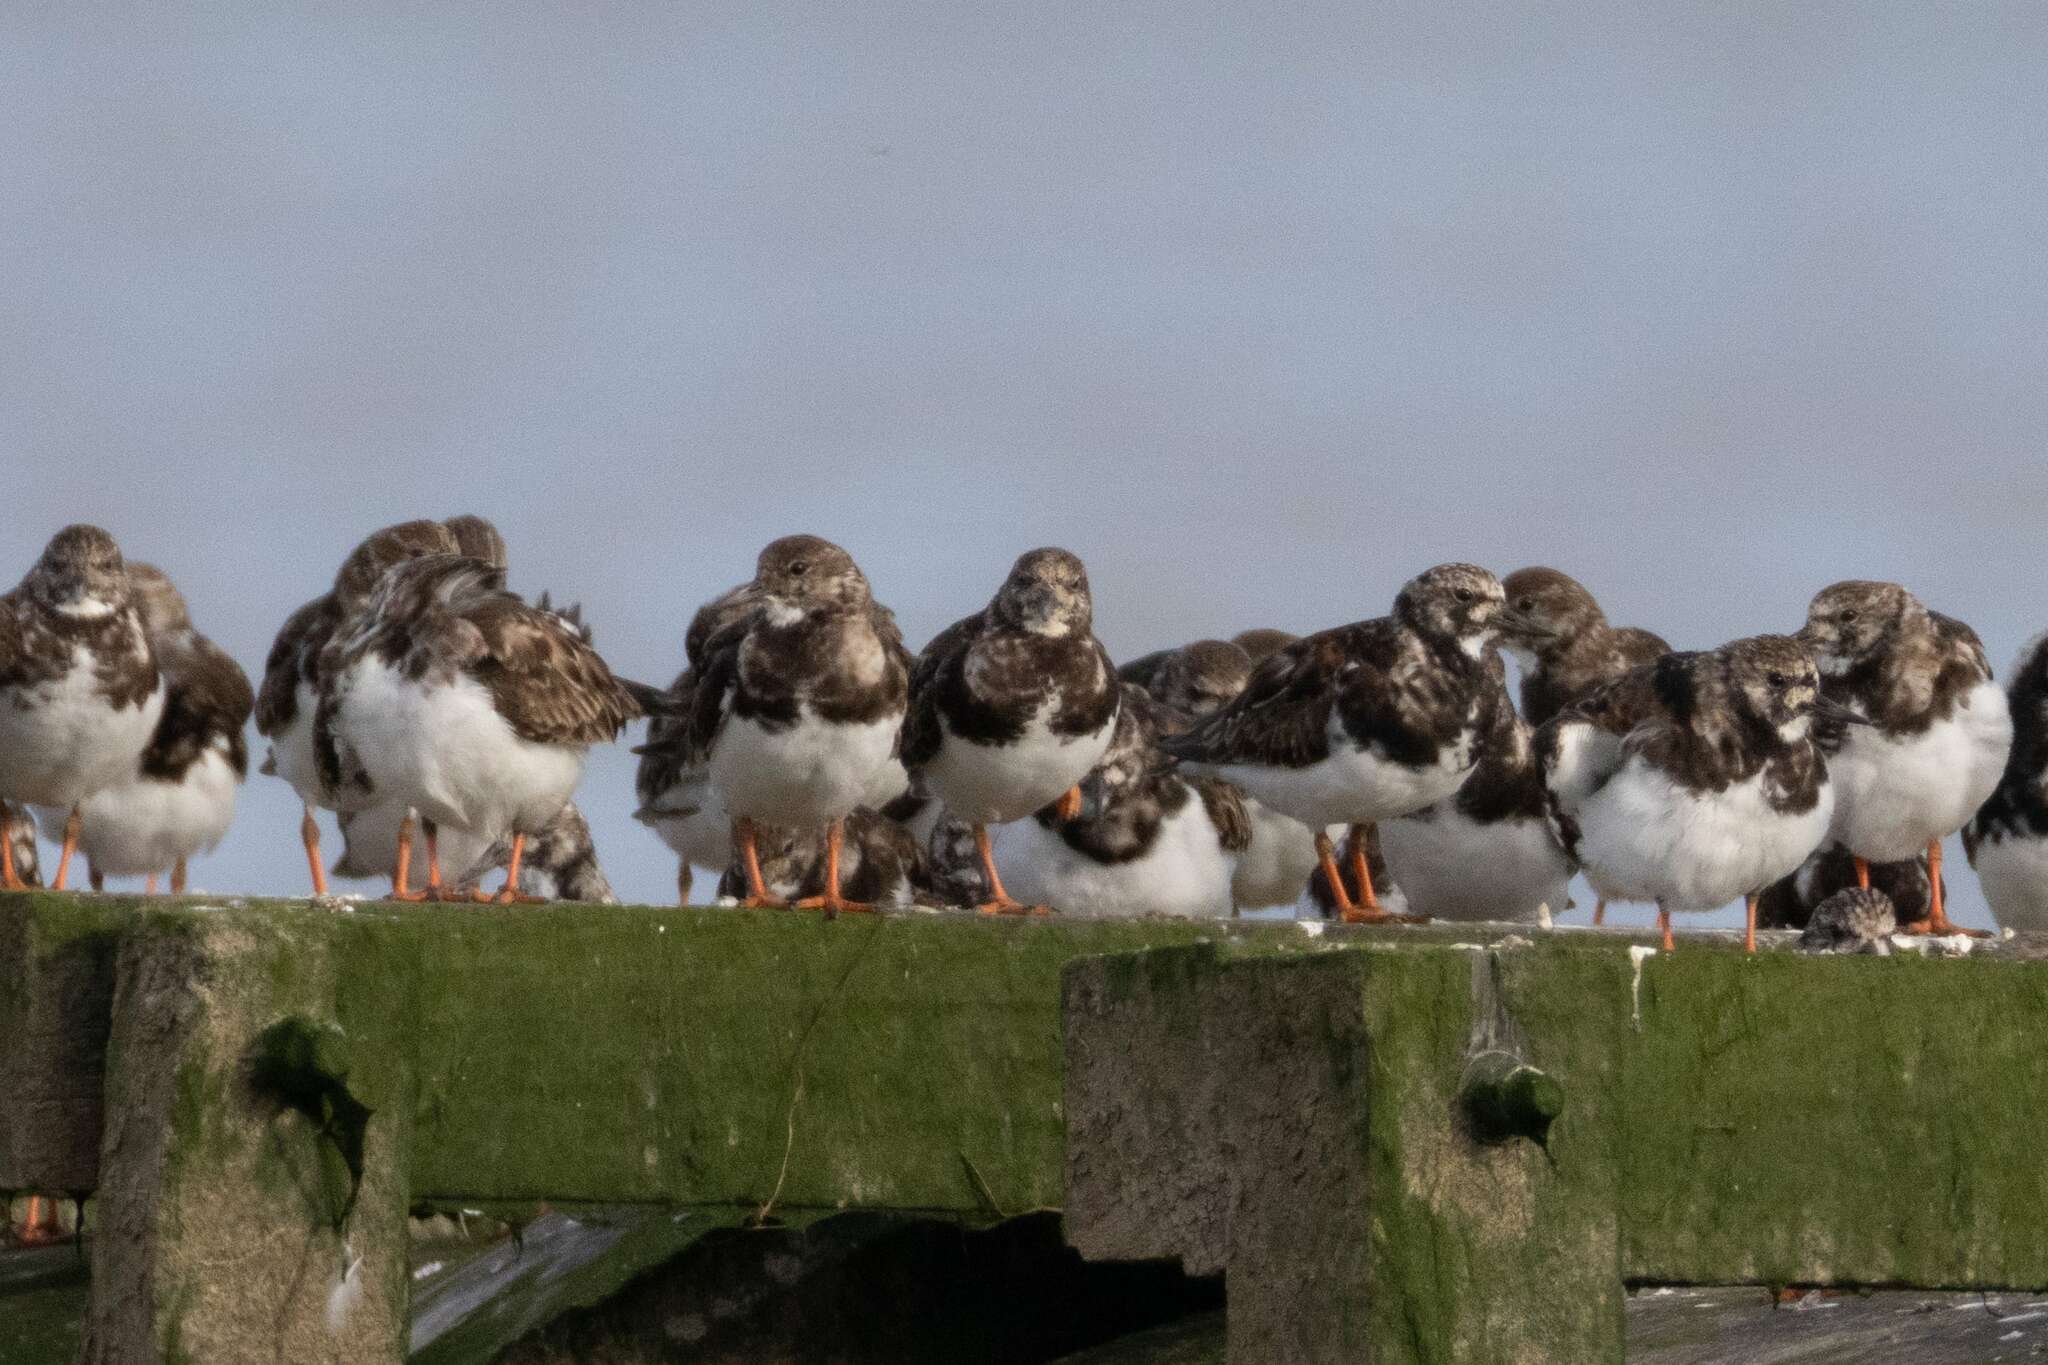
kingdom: Animalia
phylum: Chordata
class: Aves
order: Charadriiformes
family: Scolopacidae
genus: Arenaria
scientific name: Arenaria interpres
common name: Ruddy turnstone
